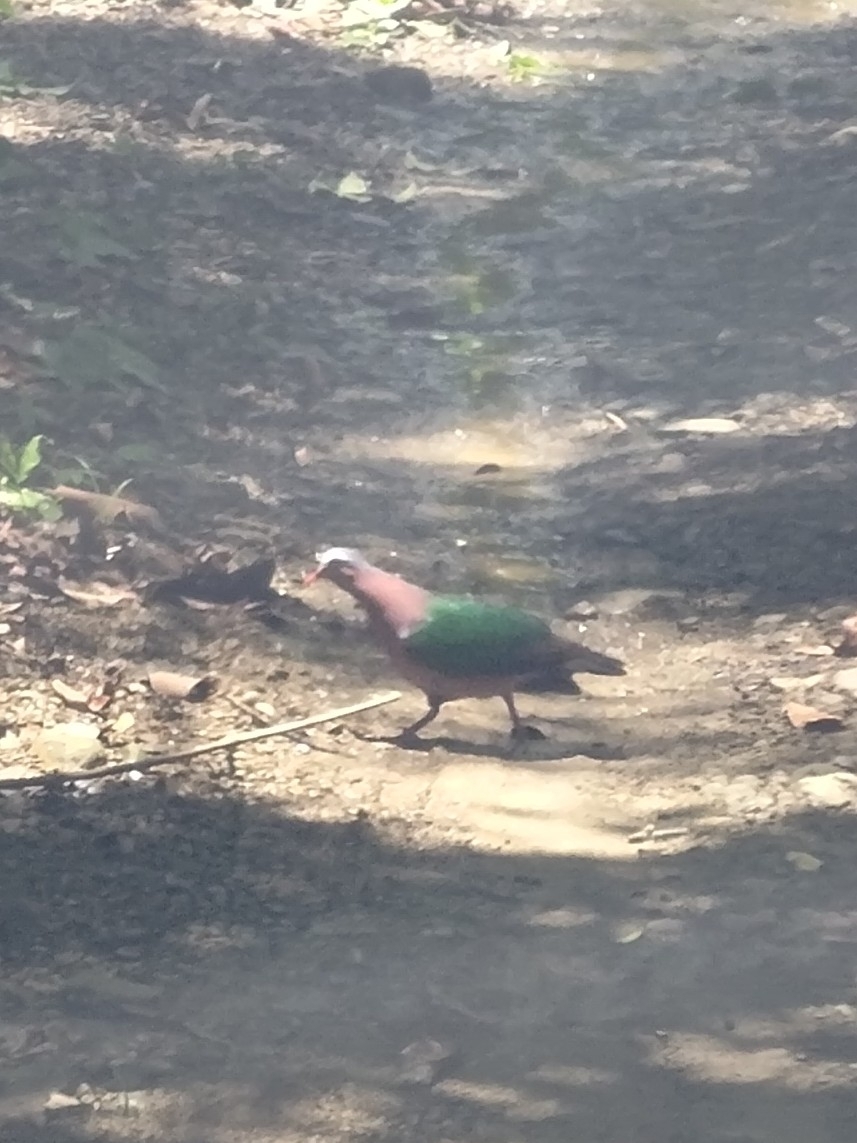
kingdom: Animalia
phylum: Chordata
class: Aves
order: Columbiformes
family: Columbidae
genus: Chalcophaps
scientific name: Chalcophaps indica
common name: Common emerald dove
